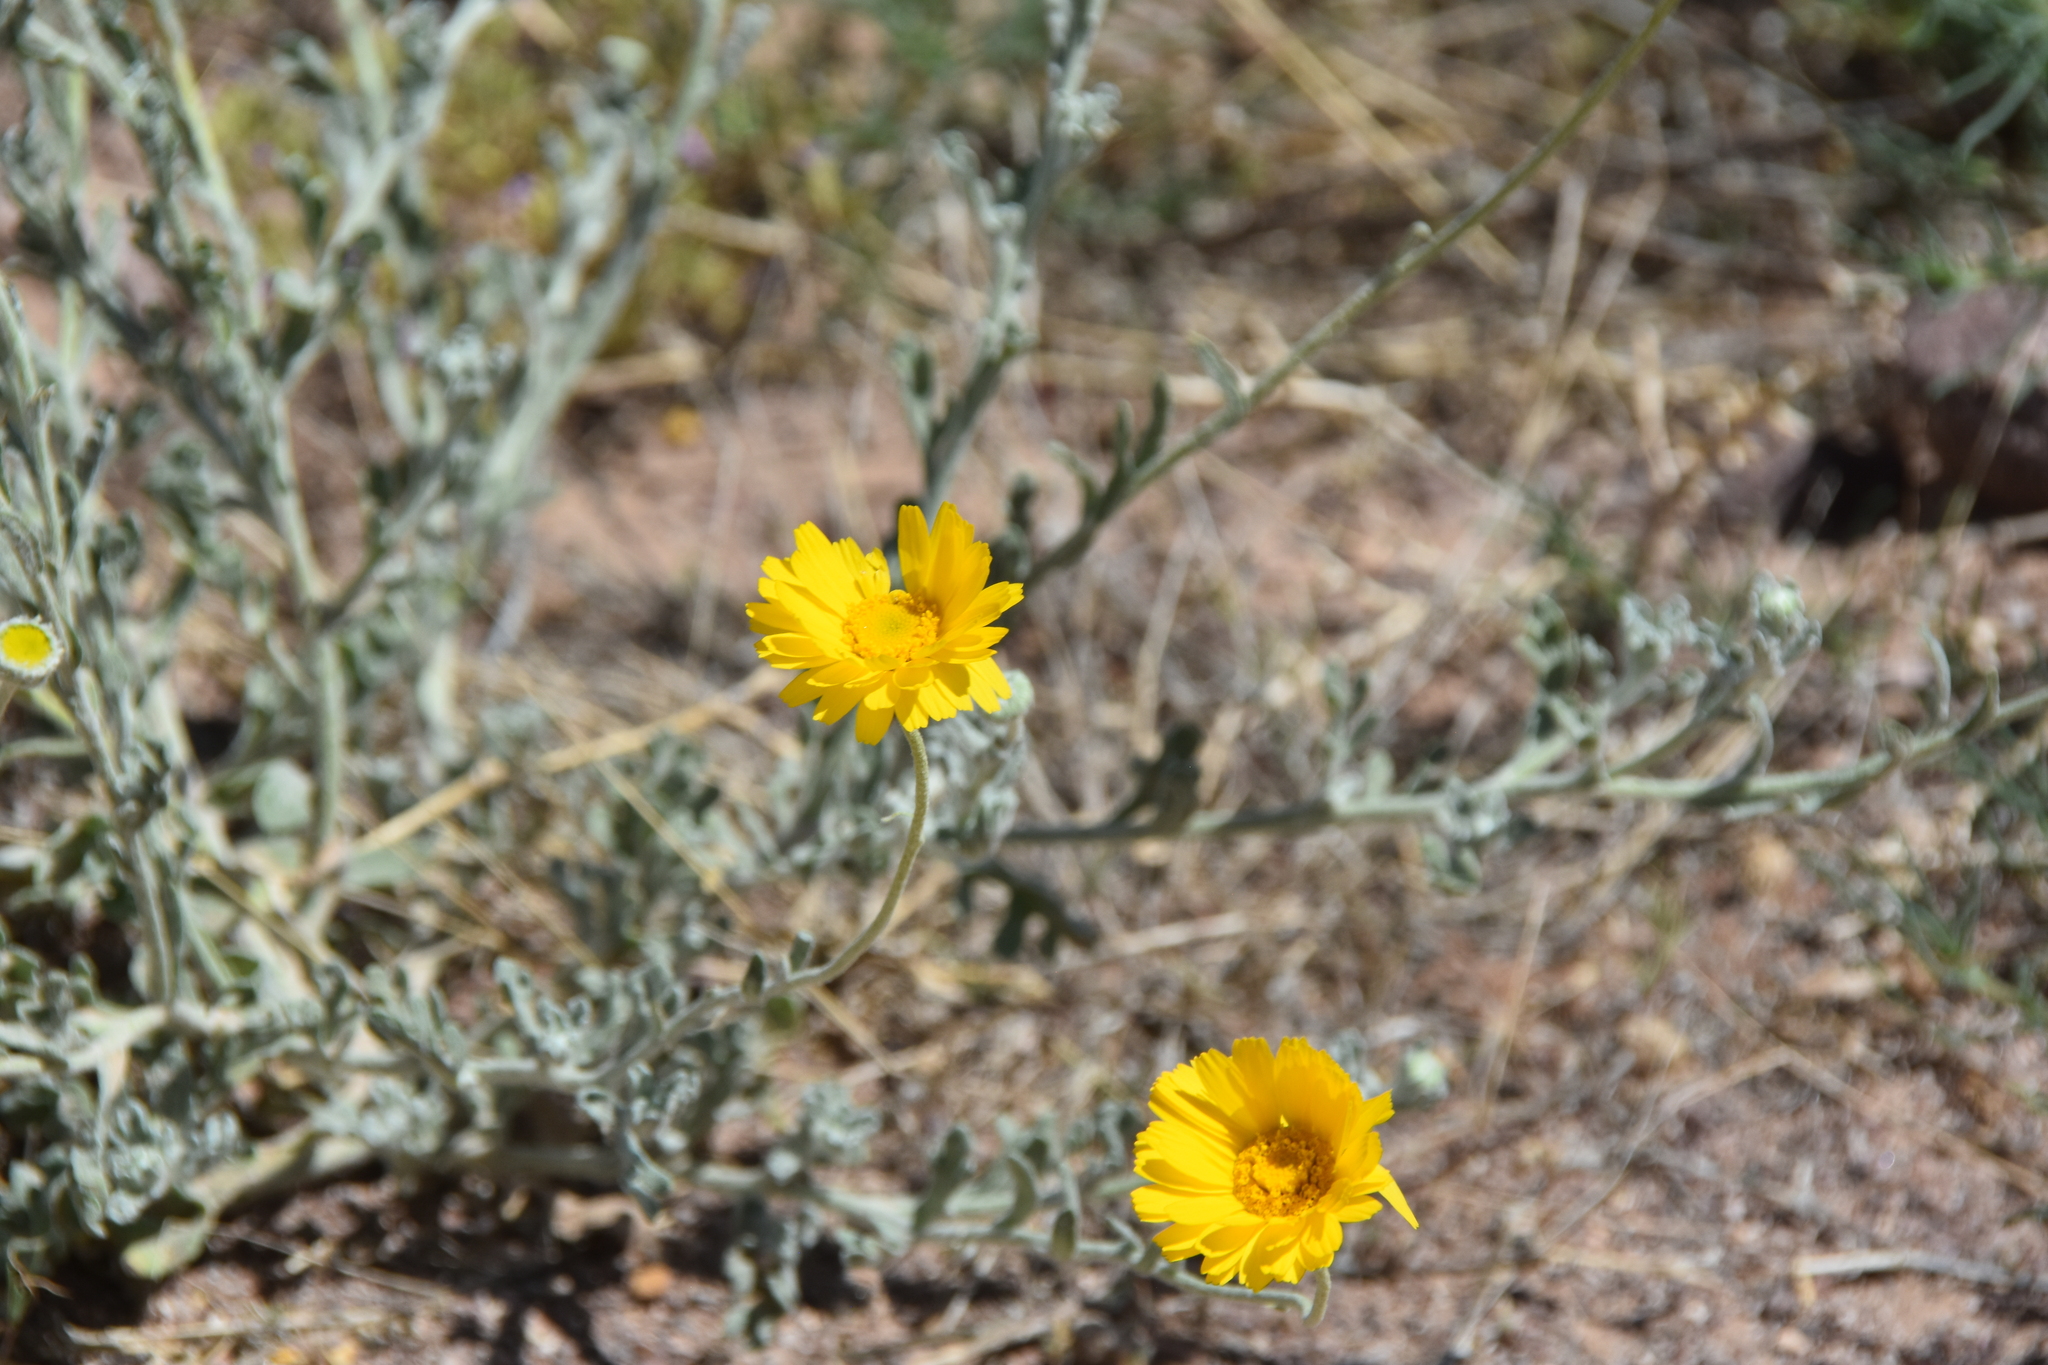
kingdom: Plantae
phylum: Tracheophyta
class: Magnoliopsida
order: Asterales
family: Asteraceae
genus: Baileya
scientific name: Baileya multiradiata
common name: Desert-marigold
